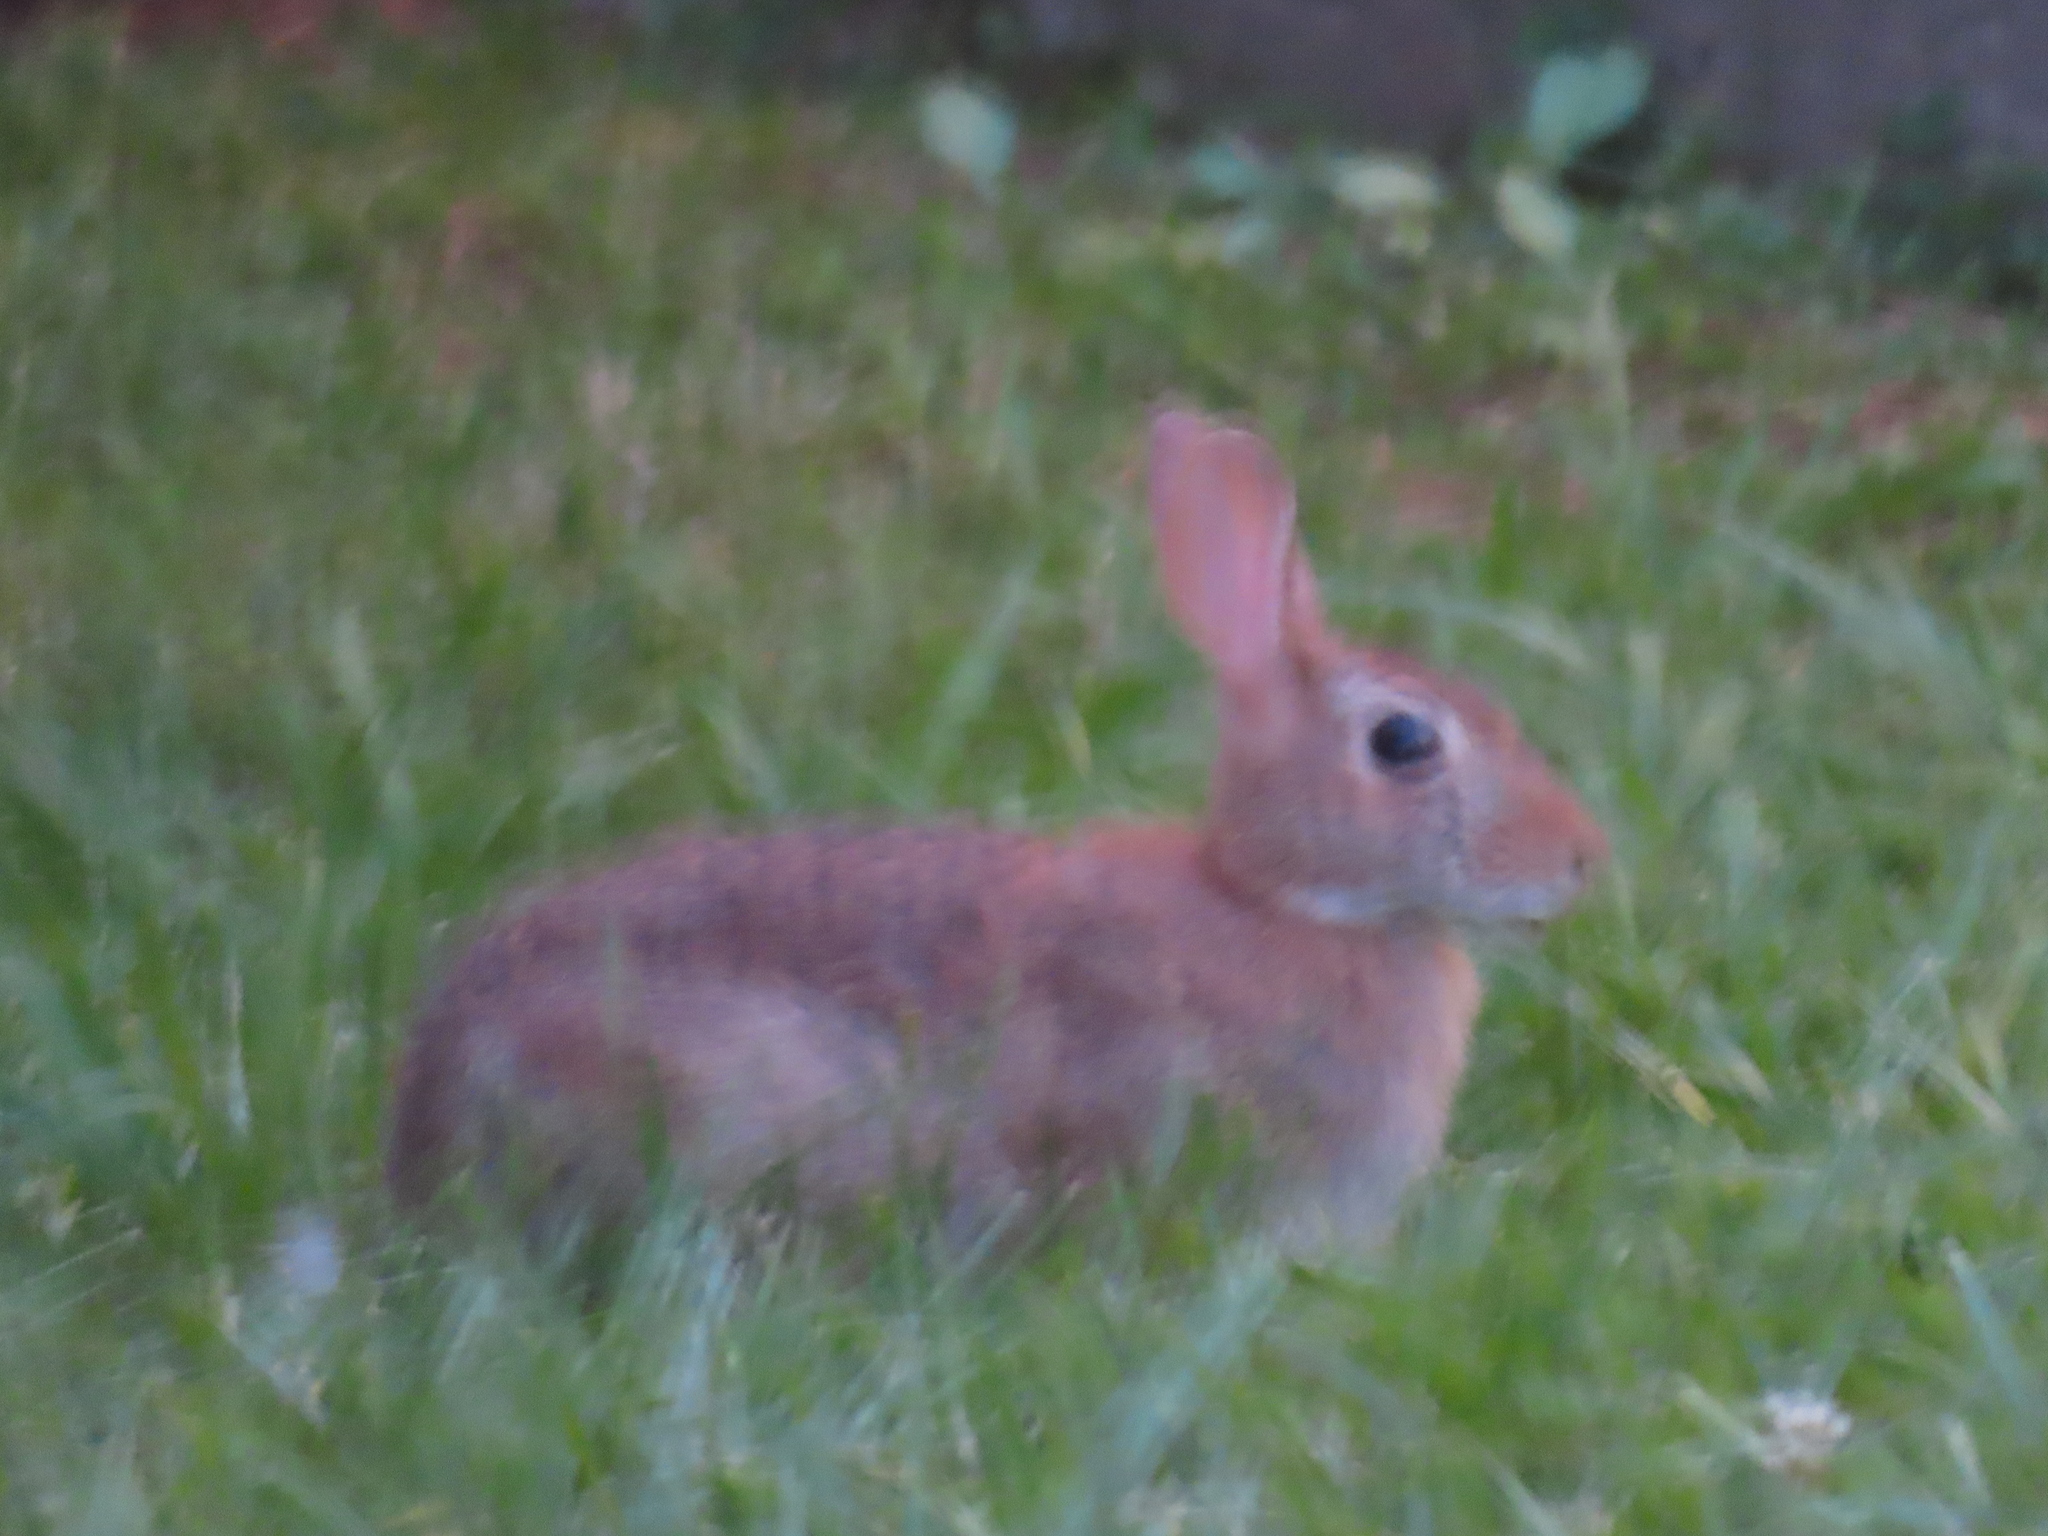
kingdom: Animalia
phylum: Chordata
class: Mammalia
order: Lagomorpha
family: Leporidae
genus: Sylvilagus
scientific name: Sylvilagus floridanus
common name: Eastern cottontail
